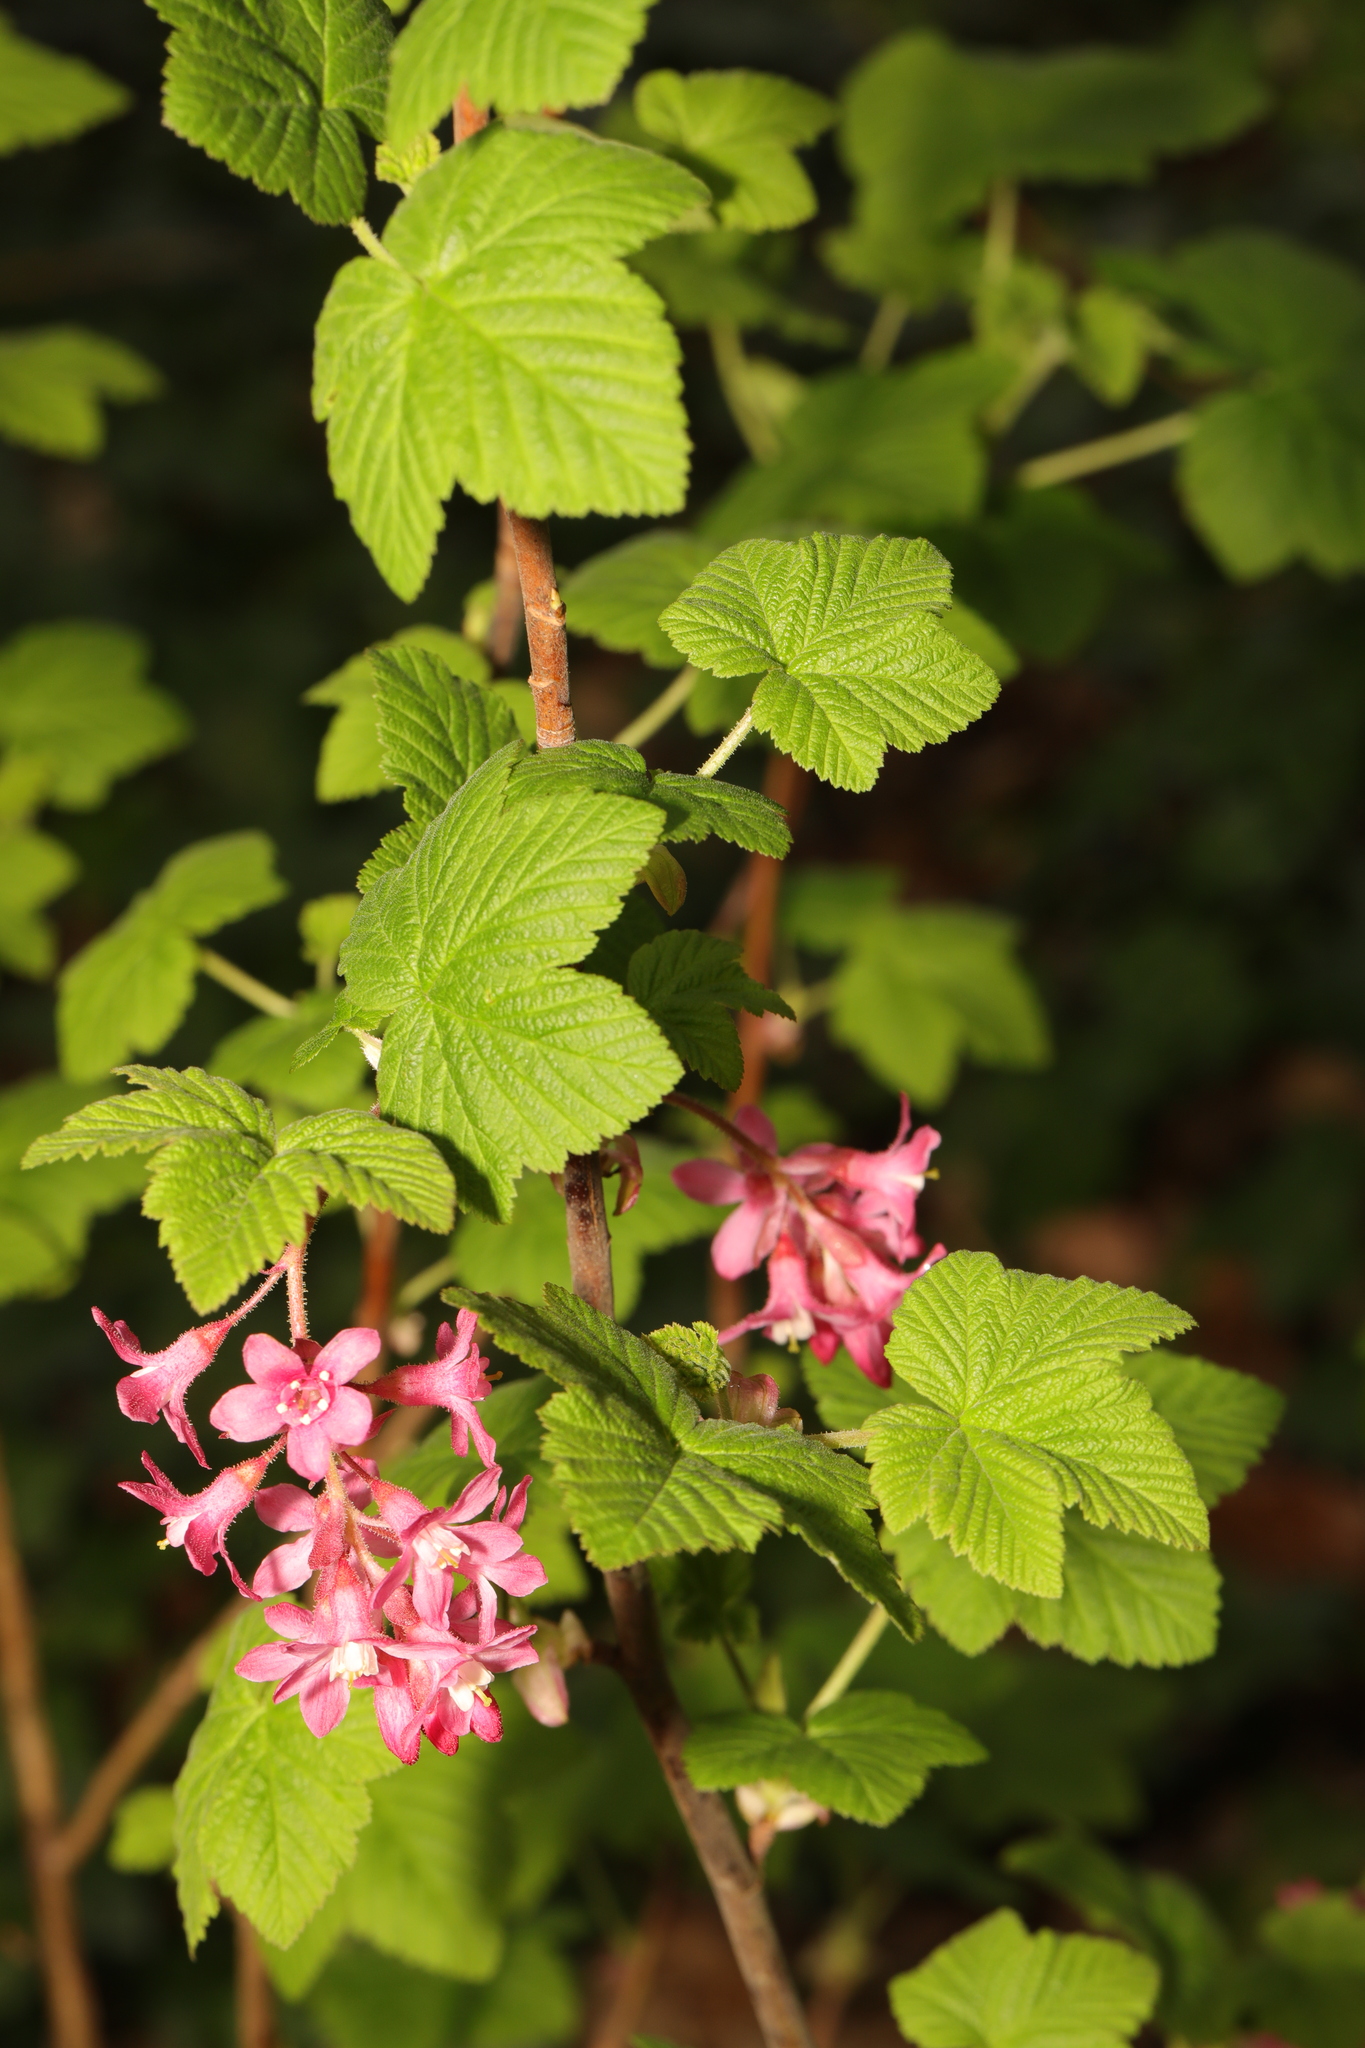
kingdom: Plantae
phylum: Tracheophyta
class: Magnoliopsida
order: Saxifragales
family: Grossulariaceae
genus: Ribes
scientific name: Ribes sanguineum
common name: Flowering currant
